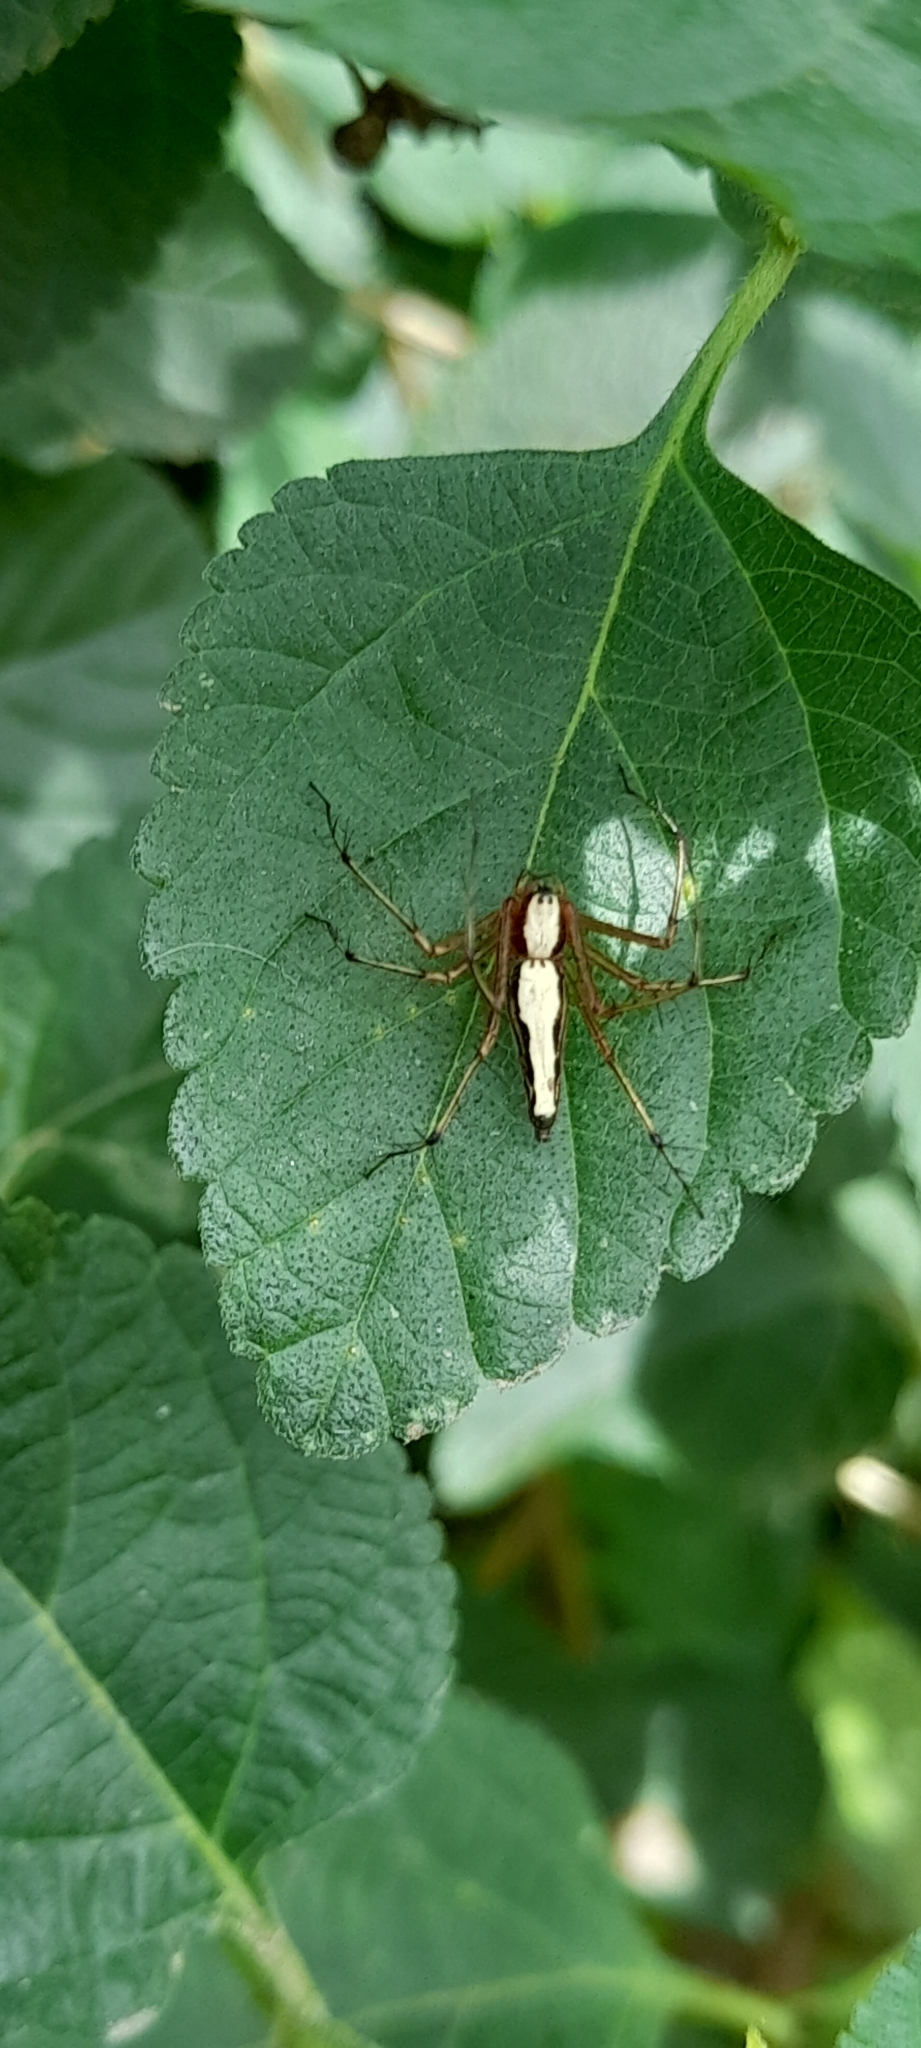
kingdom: Animalia
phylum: Arthropoda
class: Arachnida
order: Araneae
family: Oxyopidae
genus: Oxyopes
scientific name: Oxyopes shweta
